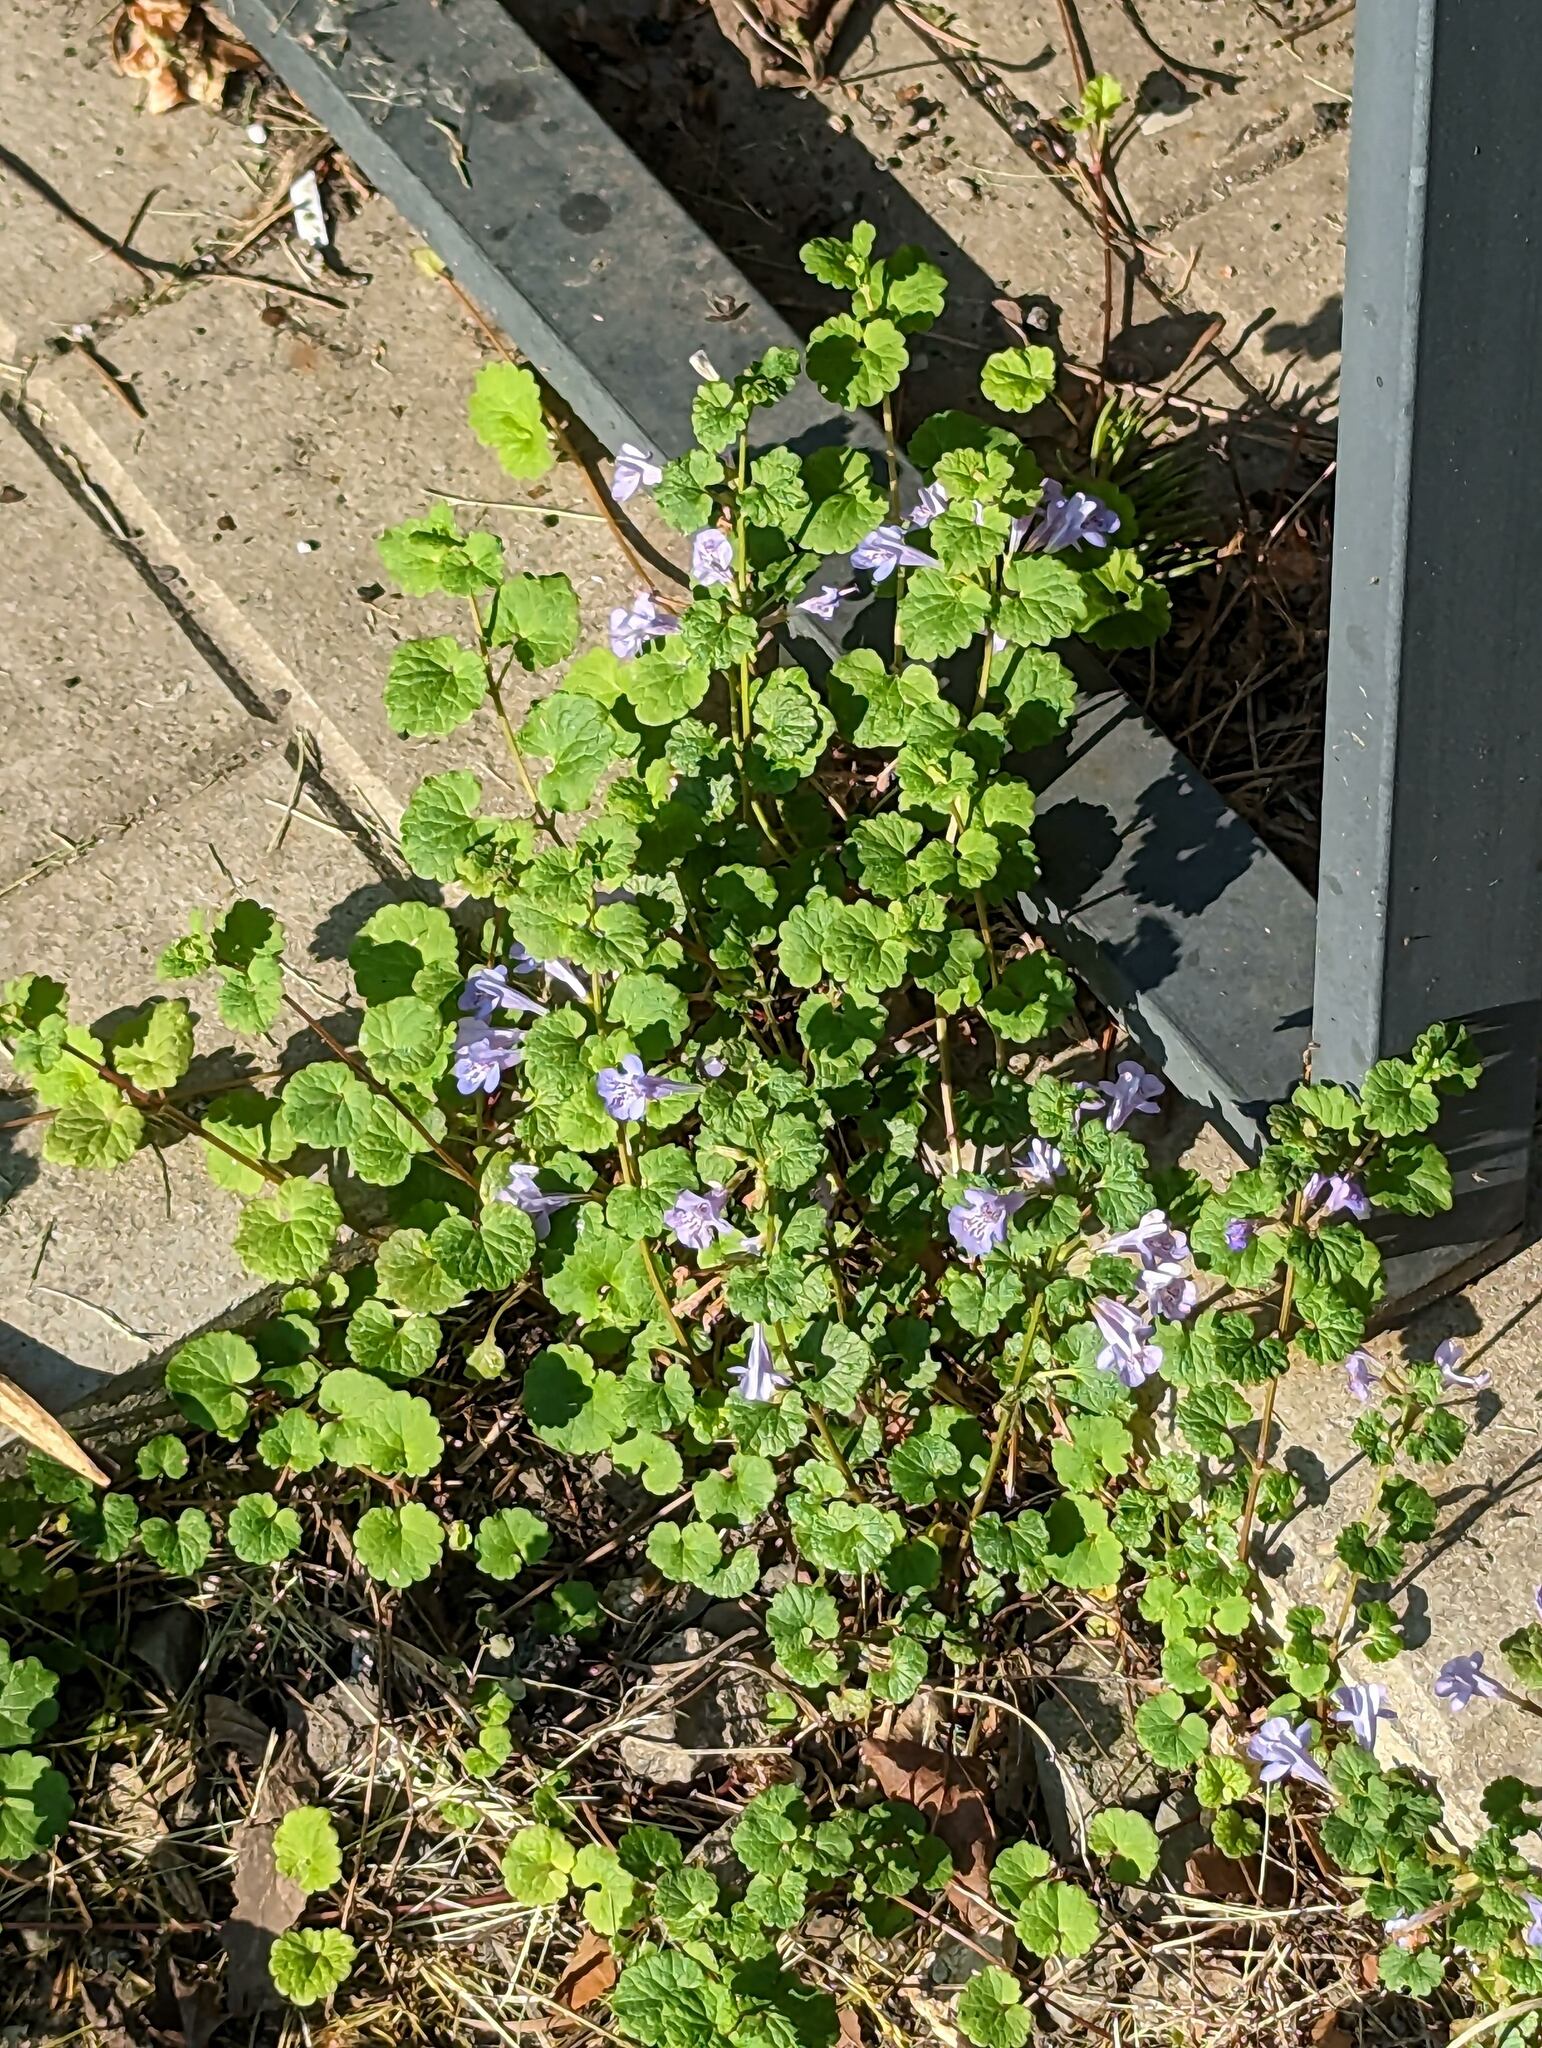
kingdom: Plantae
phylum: Tracheophyta
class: Magnoliopsida
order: Lamiales
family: Lamiaceae
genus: Glechoma
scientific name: Glechoma hederacea
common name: Ground ivy
